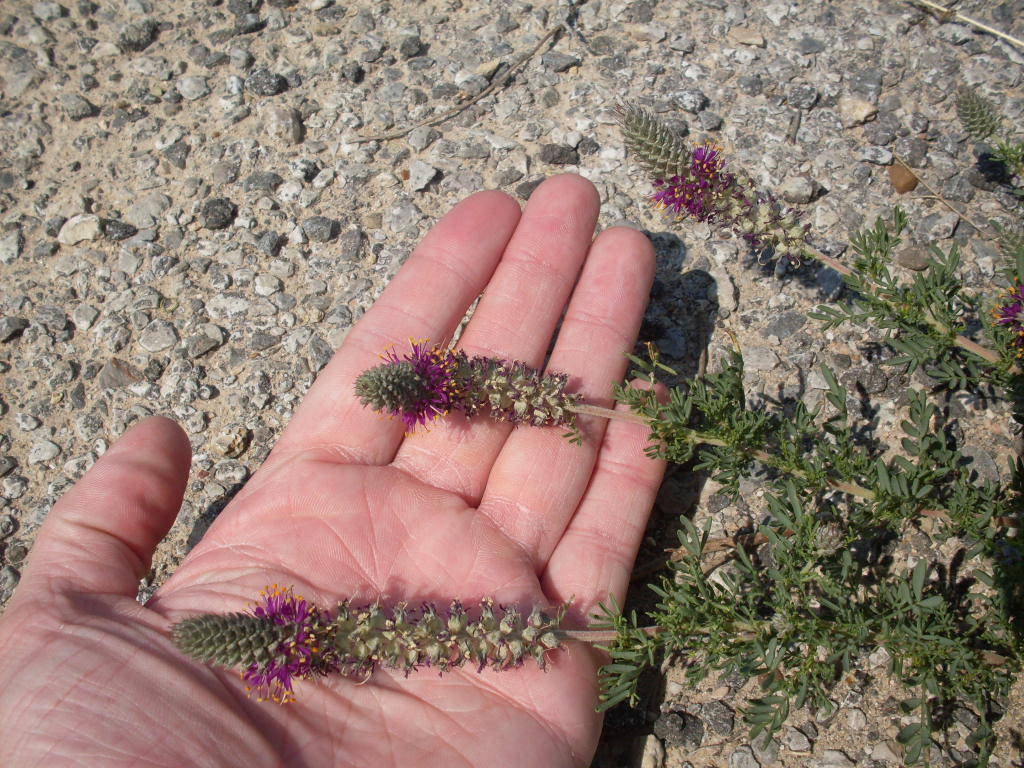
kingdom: Plantae
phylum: Tracheophyta
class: Magnoliopsida
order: Fabales
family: Fabaceae
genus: Dalea
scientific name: Dalea reverchonii
